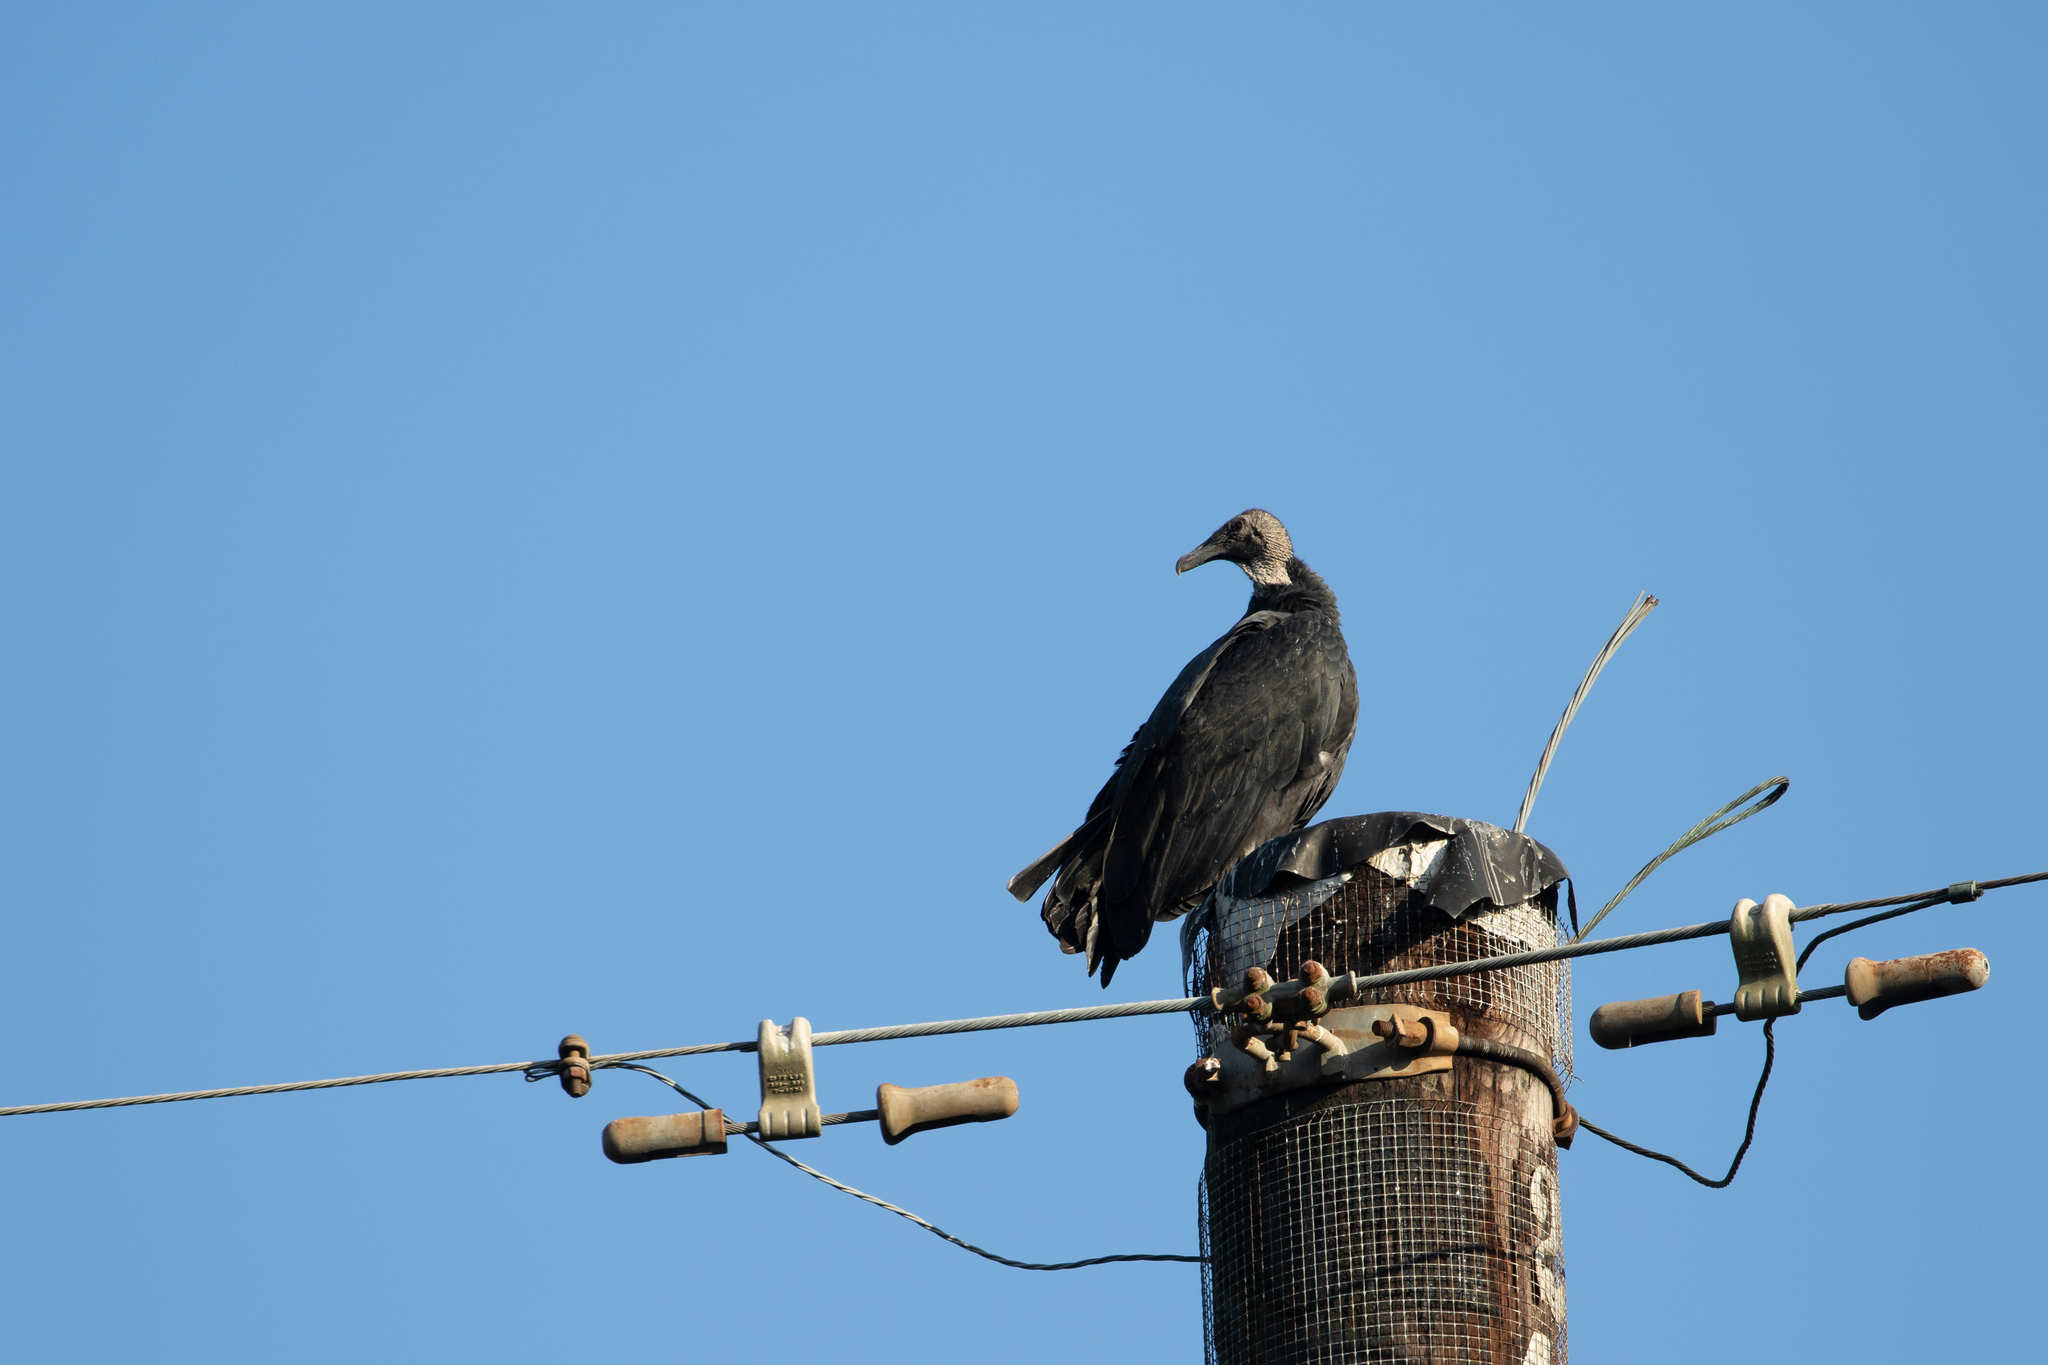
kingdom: Animalia
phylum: Chordata
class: Aves
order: Accipitriformes
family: Cathartidae
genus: Coragyps
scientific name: Coragyps atratus
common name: Black vulture
